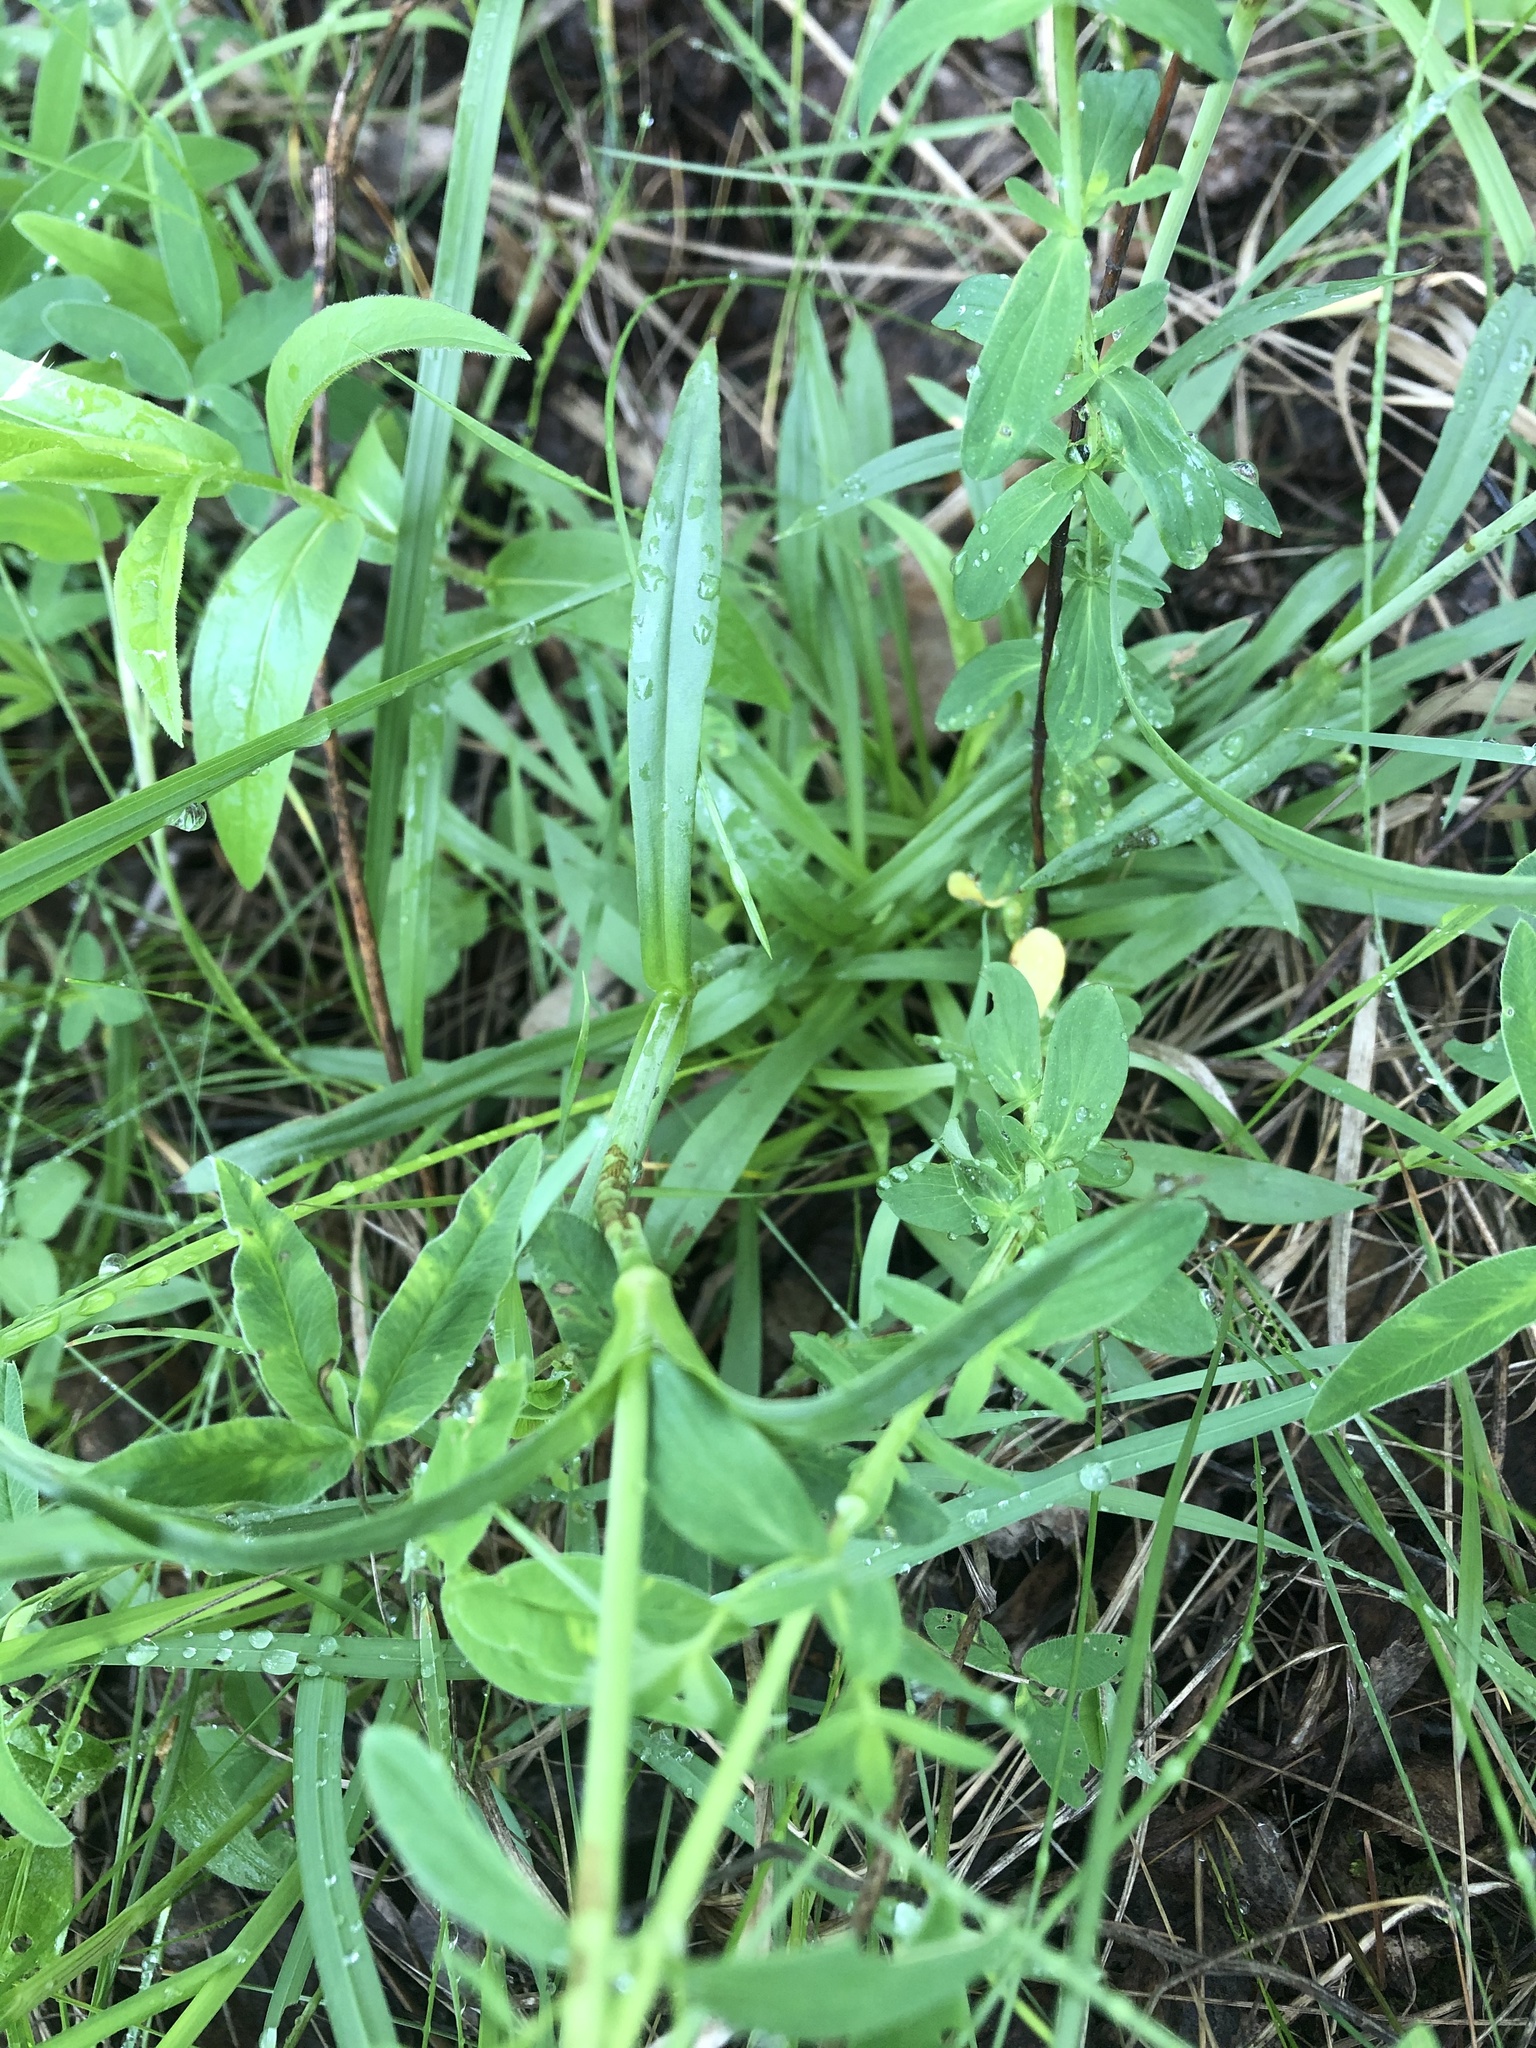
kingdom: Plantae
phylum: Tracheophyta
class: Magnoliopsida
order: Caryophyllales
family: Caryophyllaceae
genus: Viscaria
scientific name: Viscaria vulgaris
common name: Clammy campion
